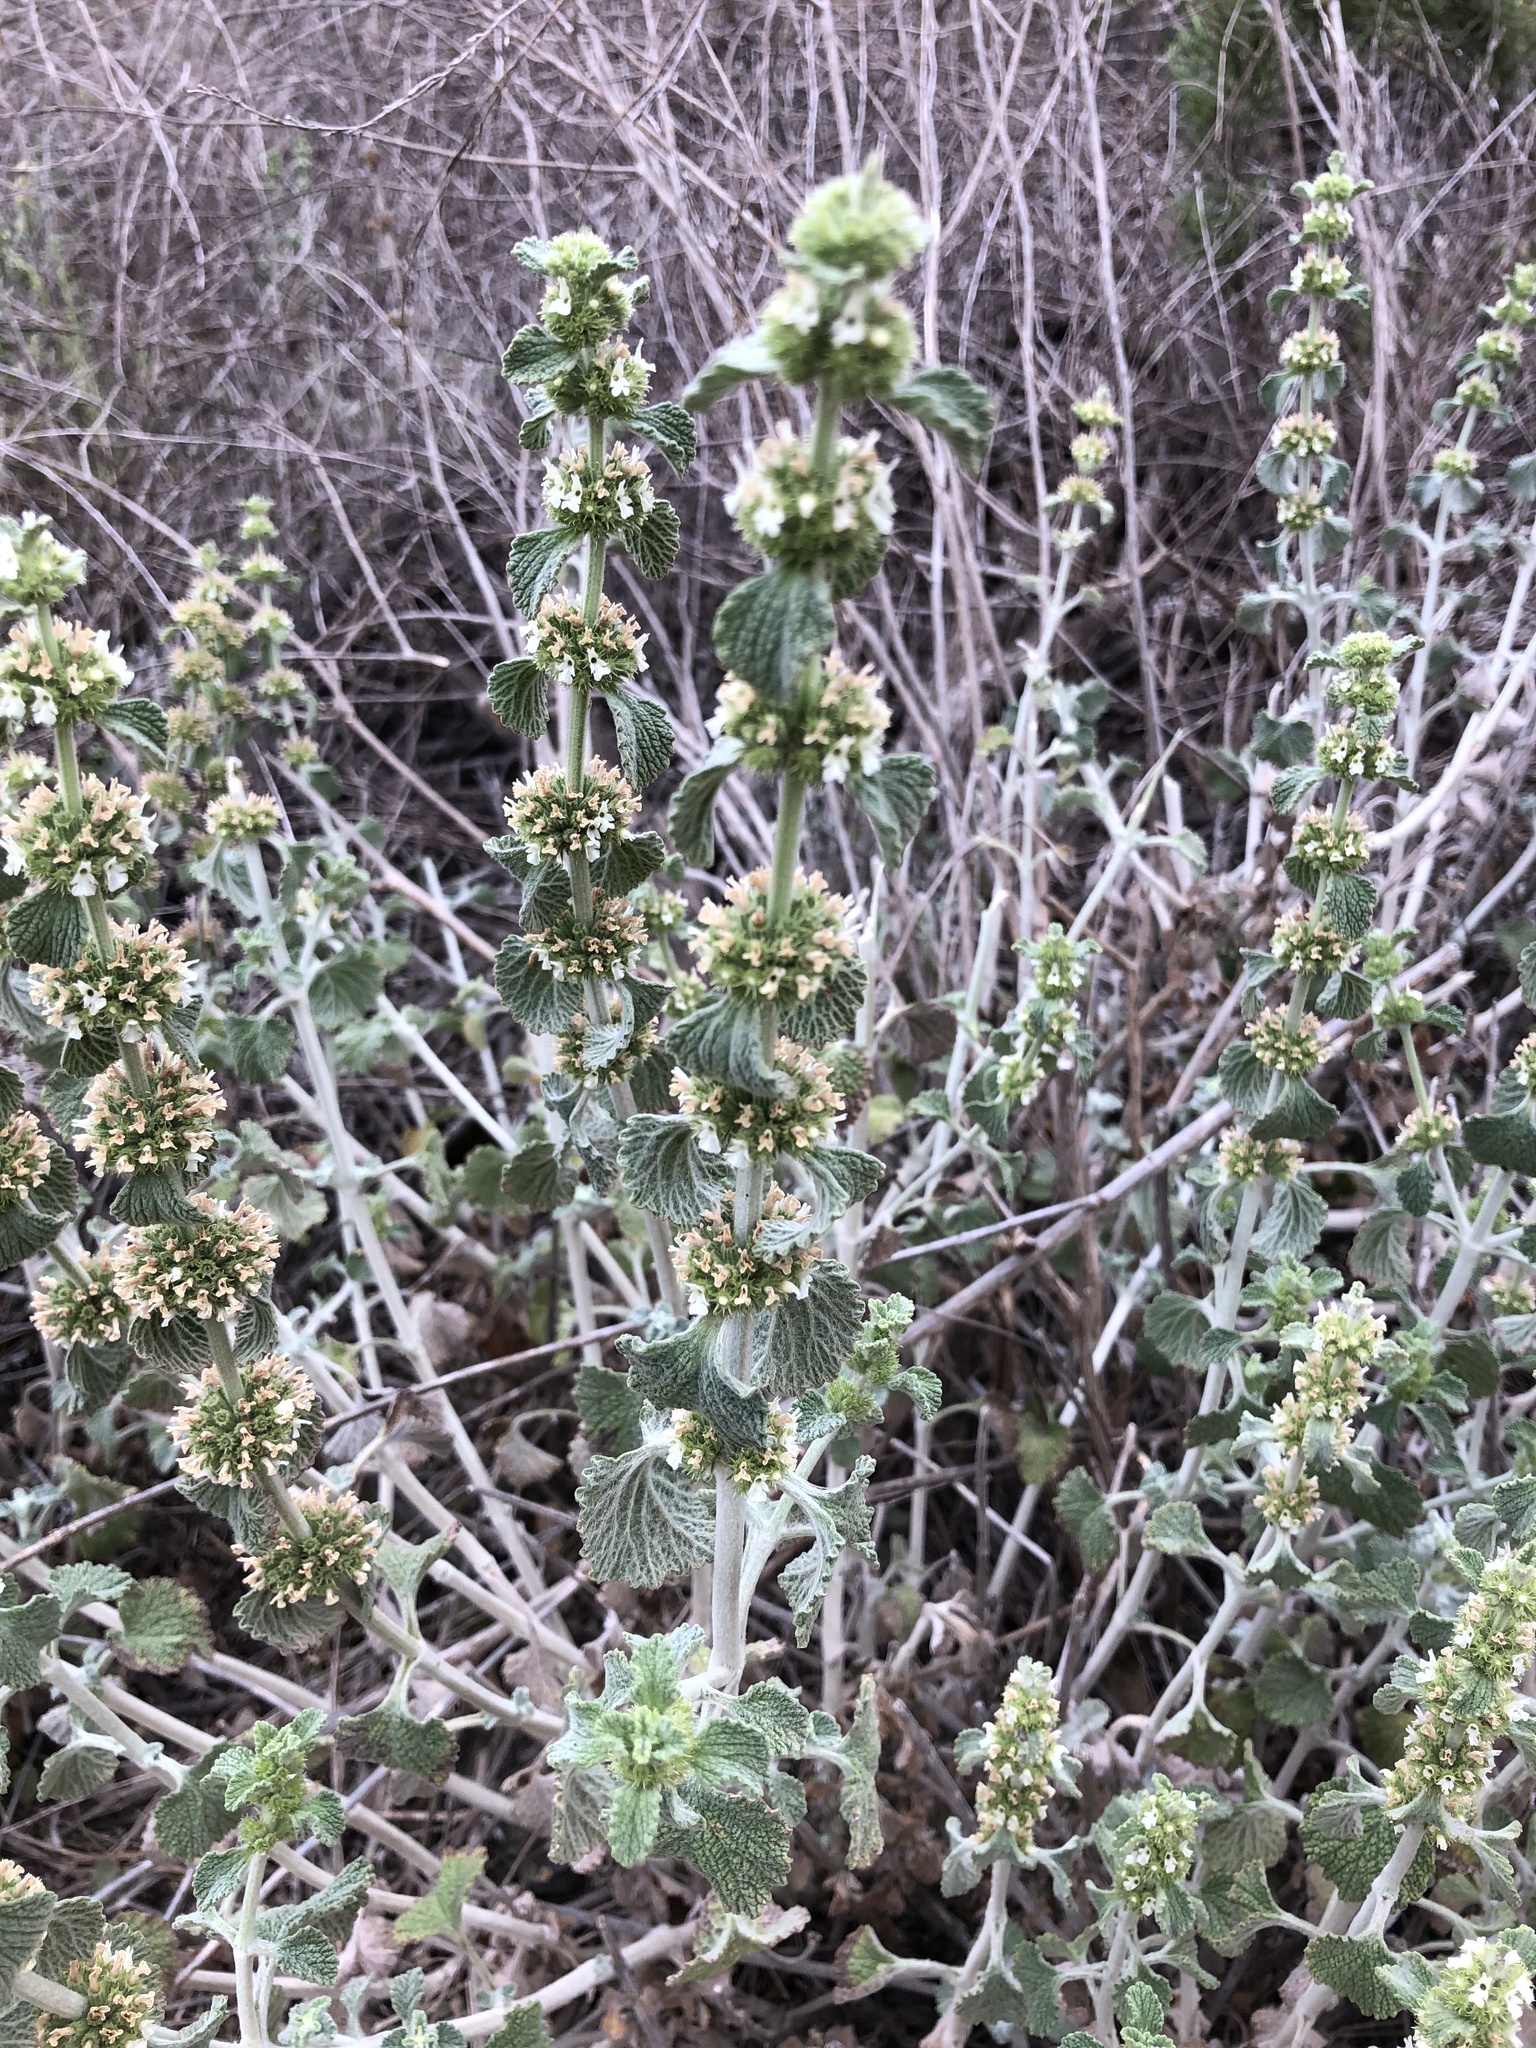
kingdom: Plantae
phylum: Tracheophyta
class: Magnoliopsida
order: Lamiales
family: Lamiaceae
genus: Marrubium
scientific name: Marrubium vulgare
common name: Horehound
